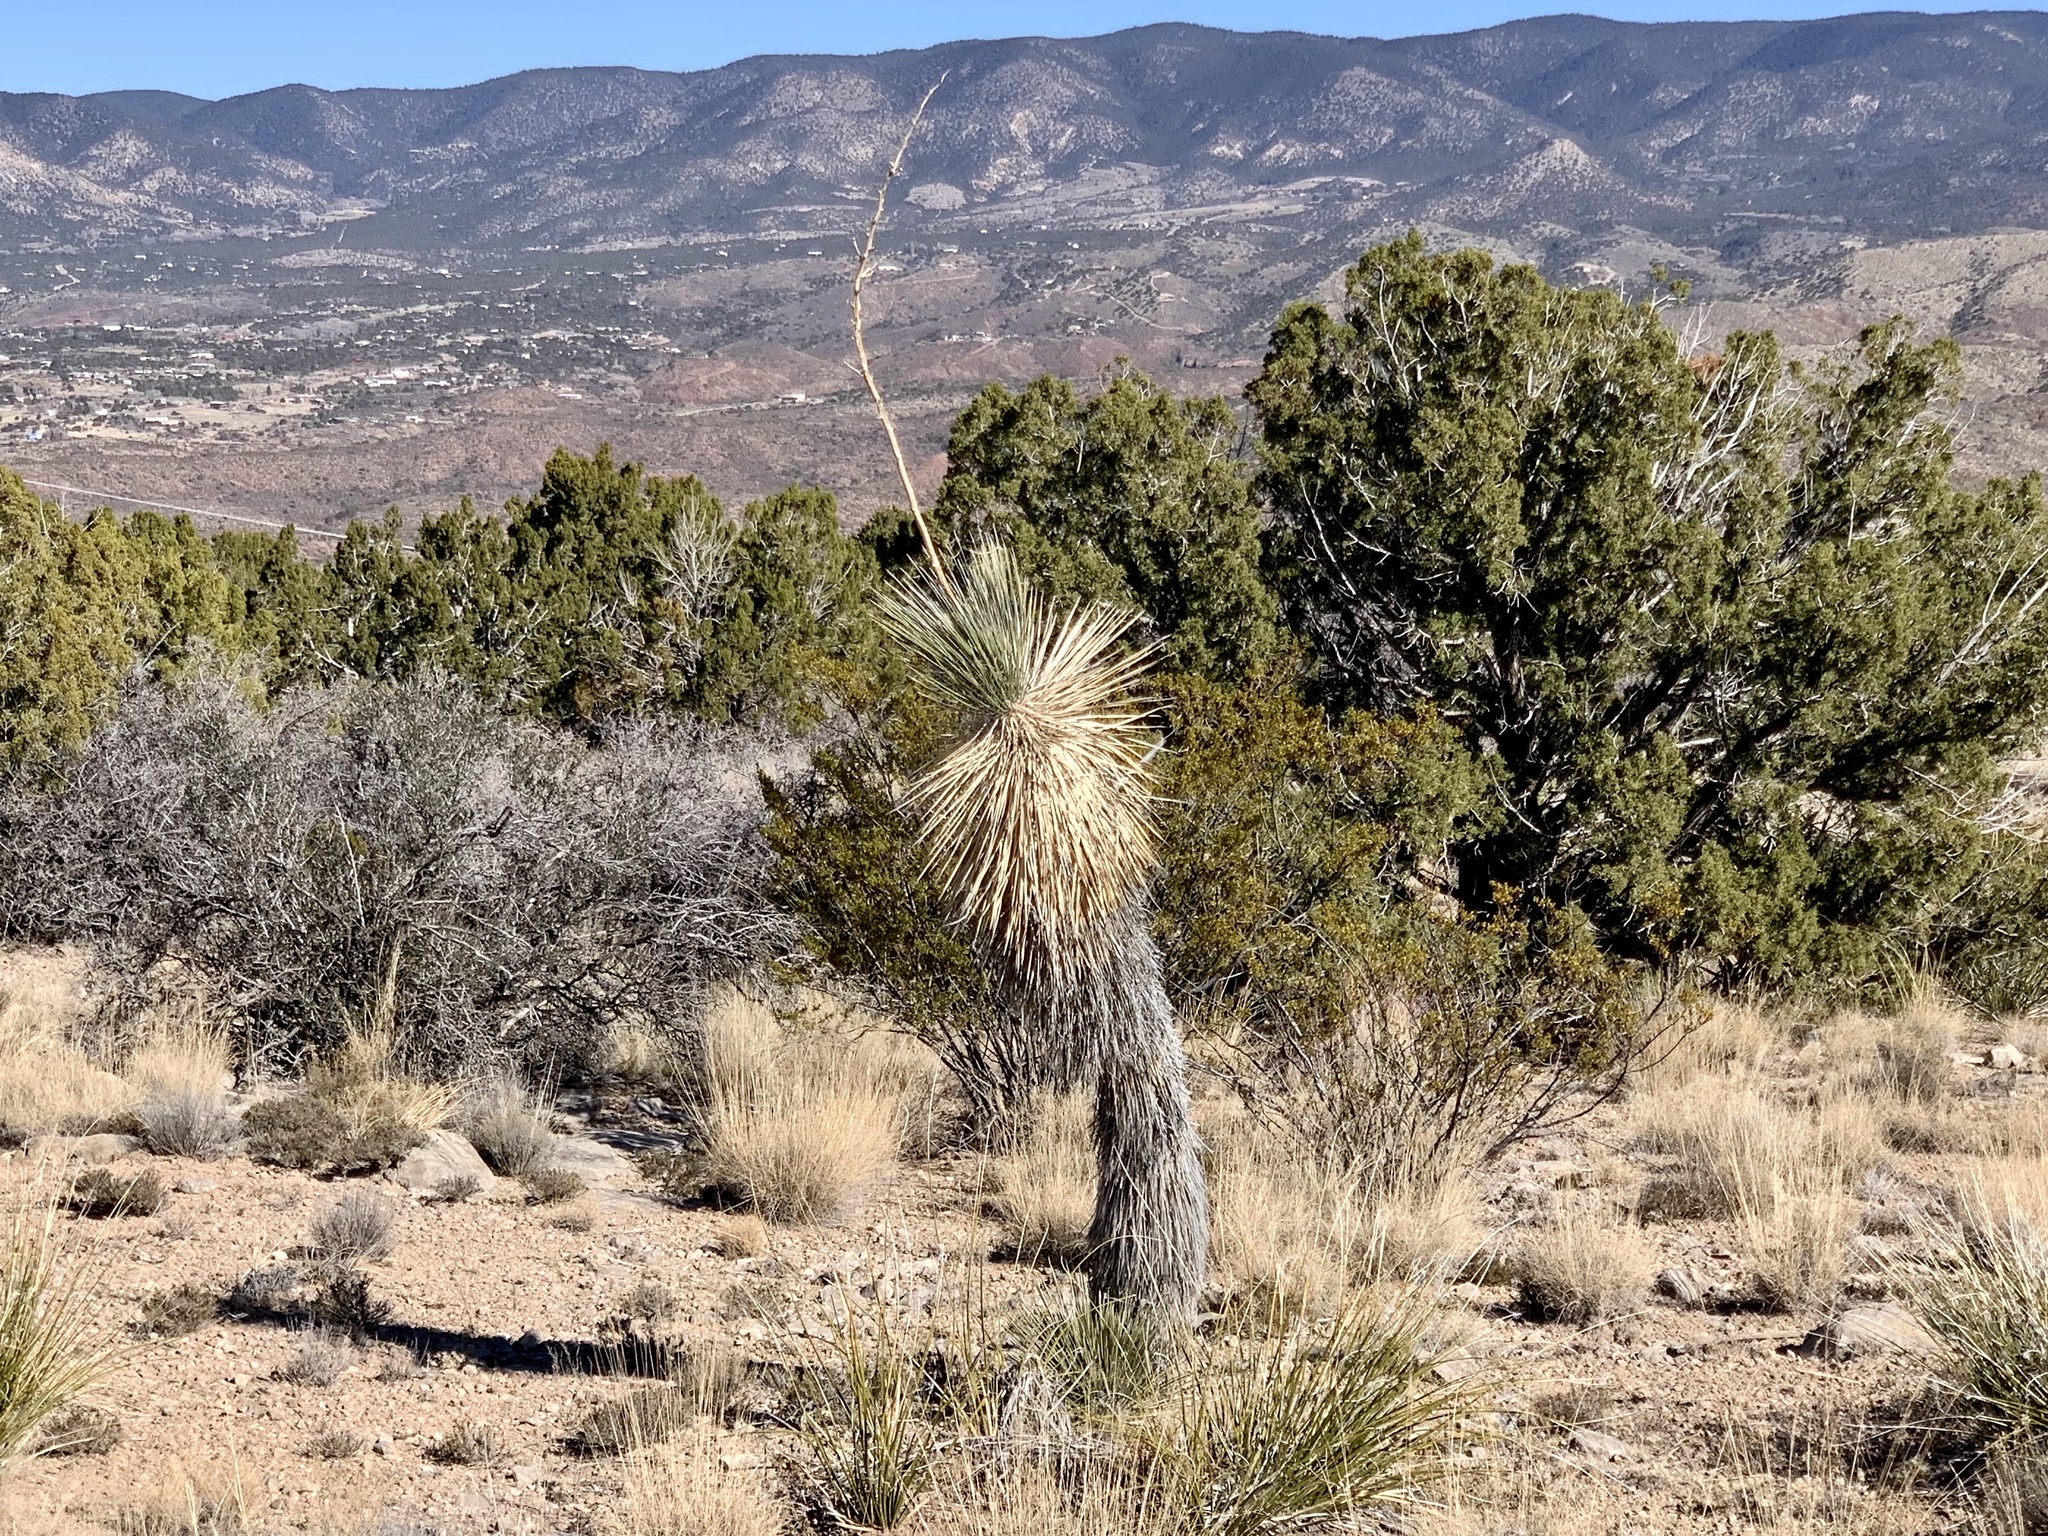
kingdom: Plantae
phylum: Tracheophyta
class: Liliopsida
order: Asparagales
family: Asparagaceae
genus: Yucca
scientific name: Yucca elata
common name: Palmella
